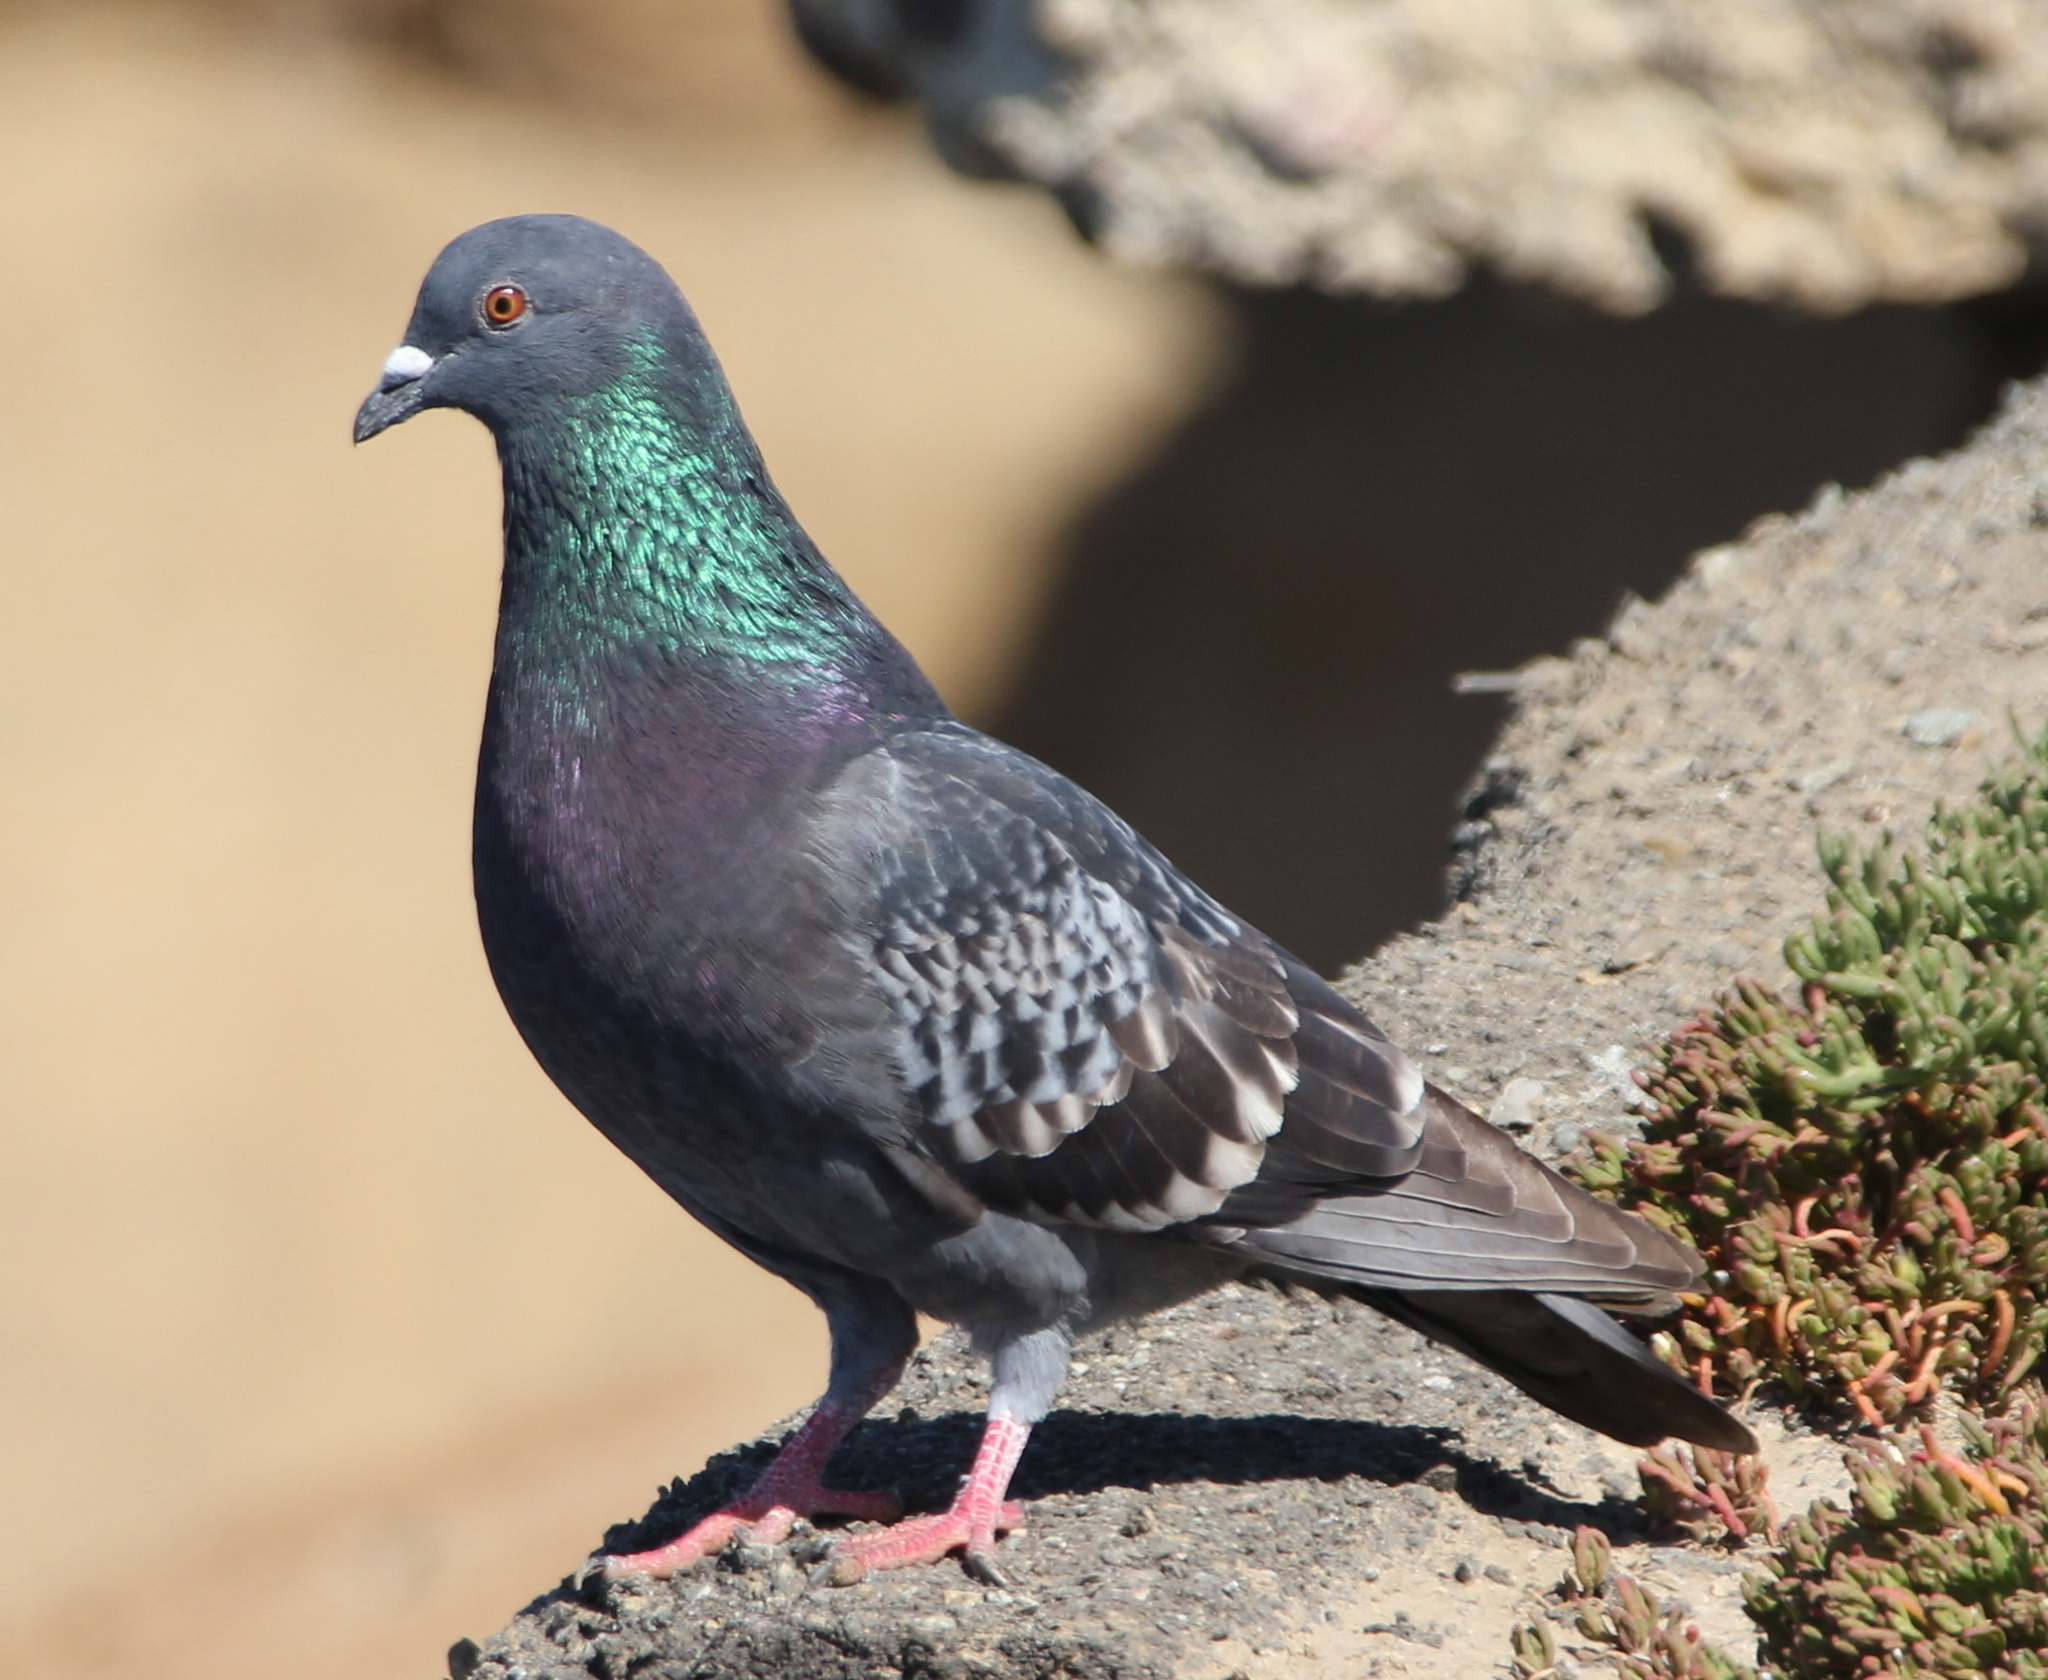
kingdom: Animalia
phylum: Chordata
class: Aves
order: Columbiformes
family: Columbidae
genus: Columba
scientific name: Columba livia
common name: Rock pigeon
